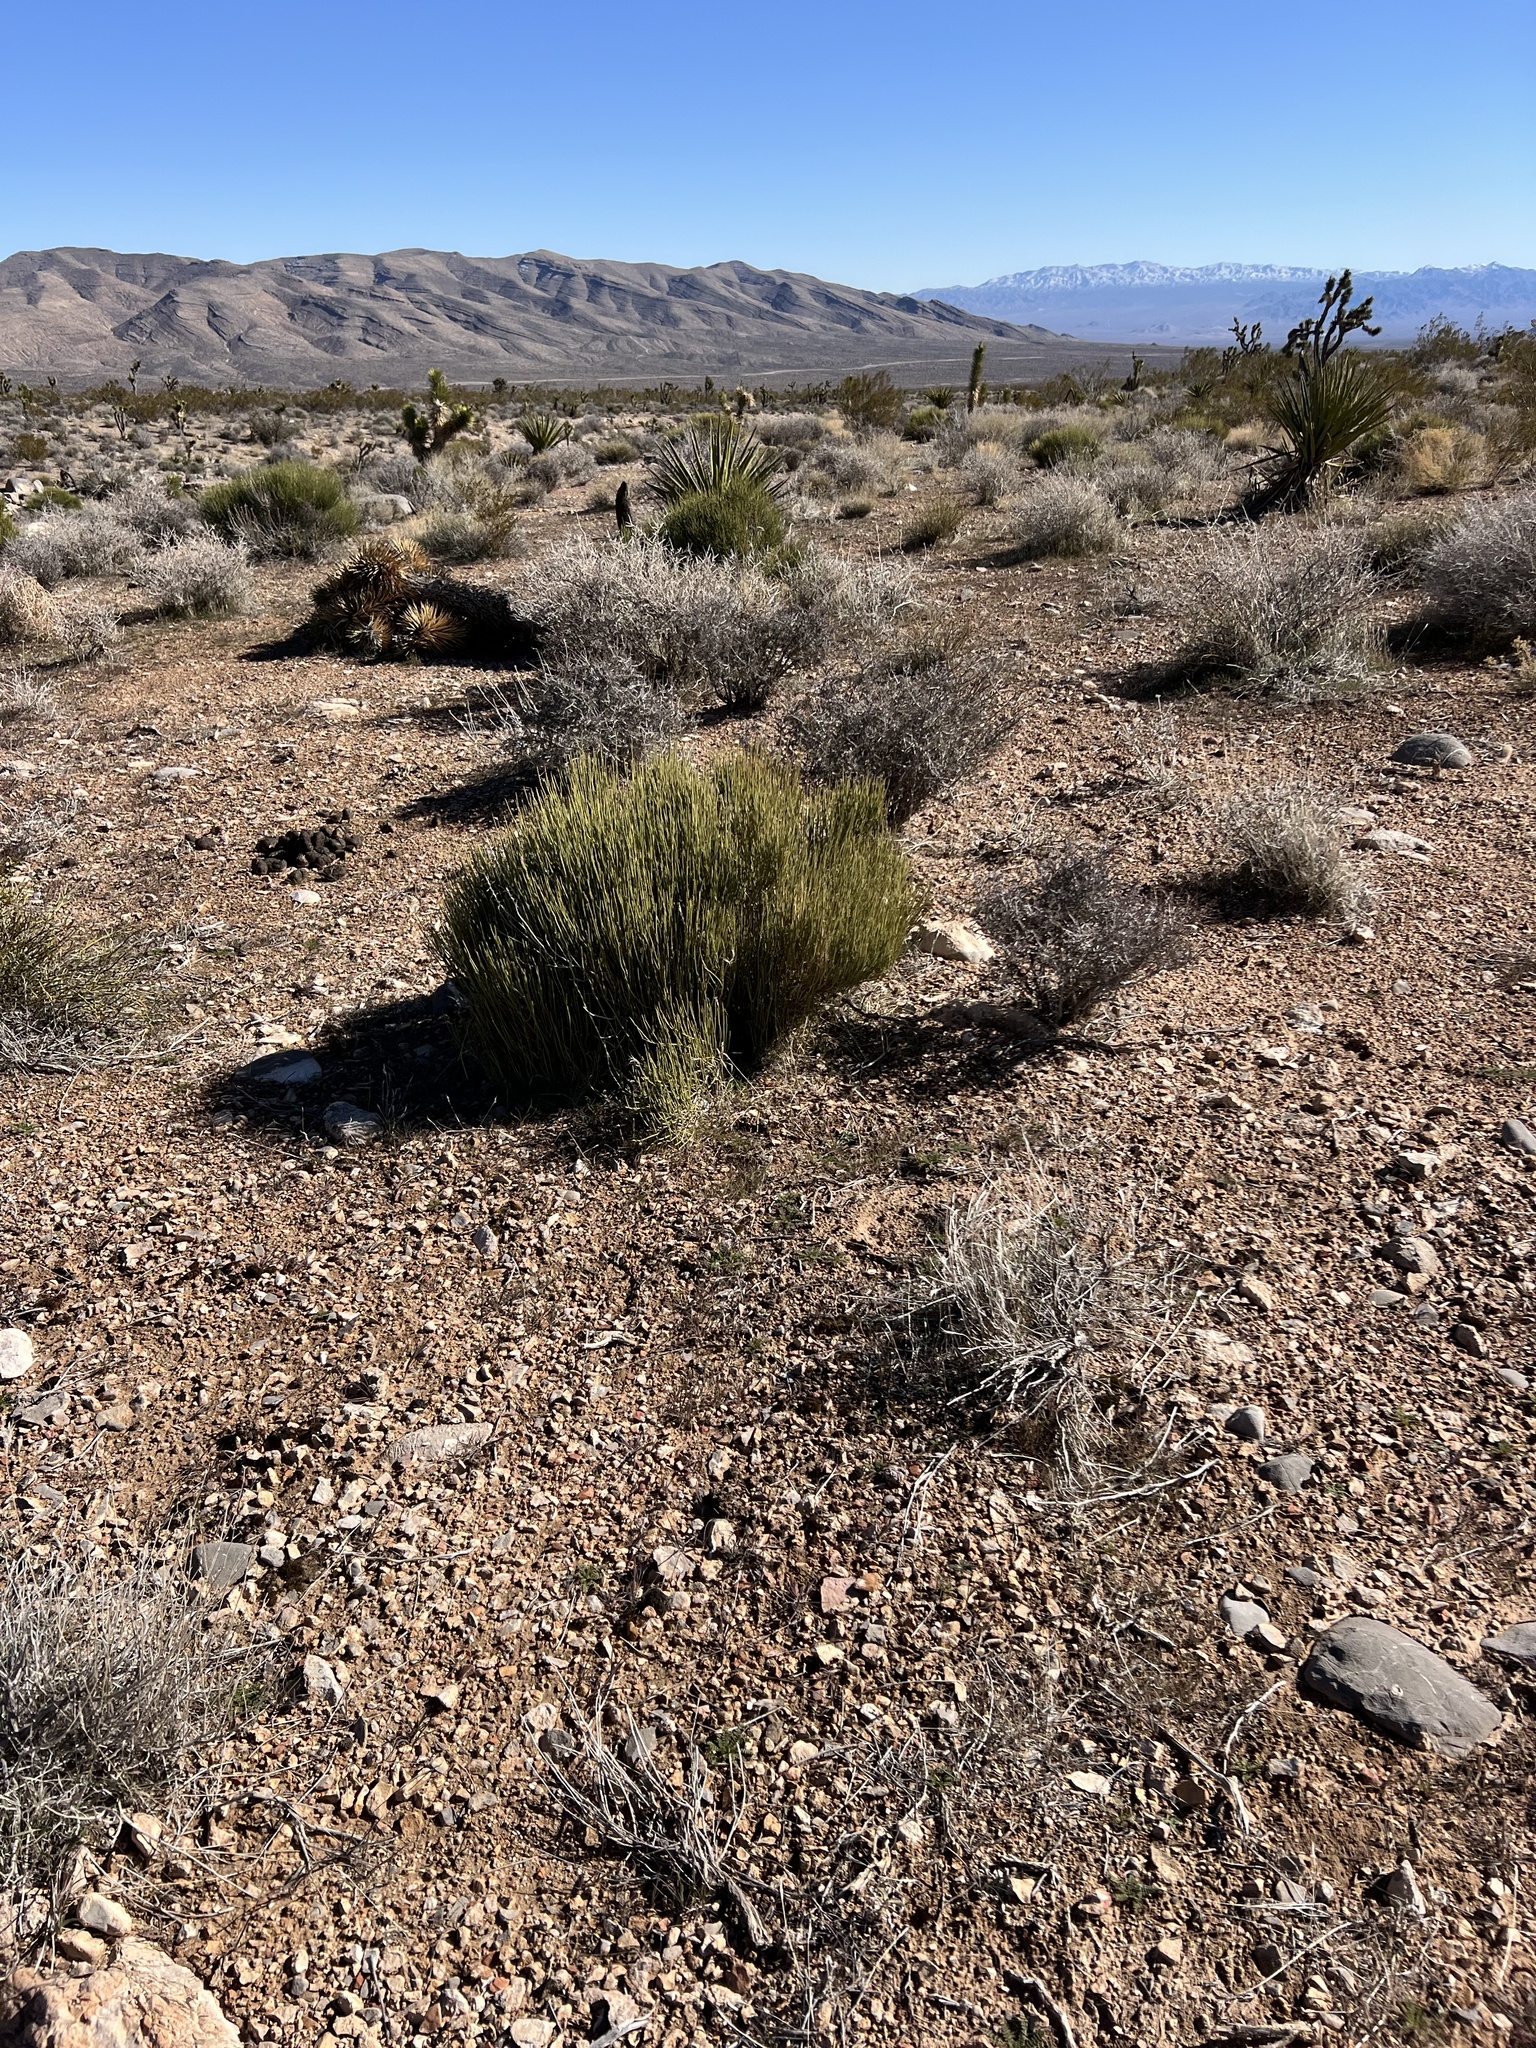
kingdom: Plantae
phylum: Tracheophyta
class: Gnetopsida
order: Ephedrales
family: Ephedraceae
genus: Ephedra
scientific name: Ephedra viridis
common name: Green ephedra
